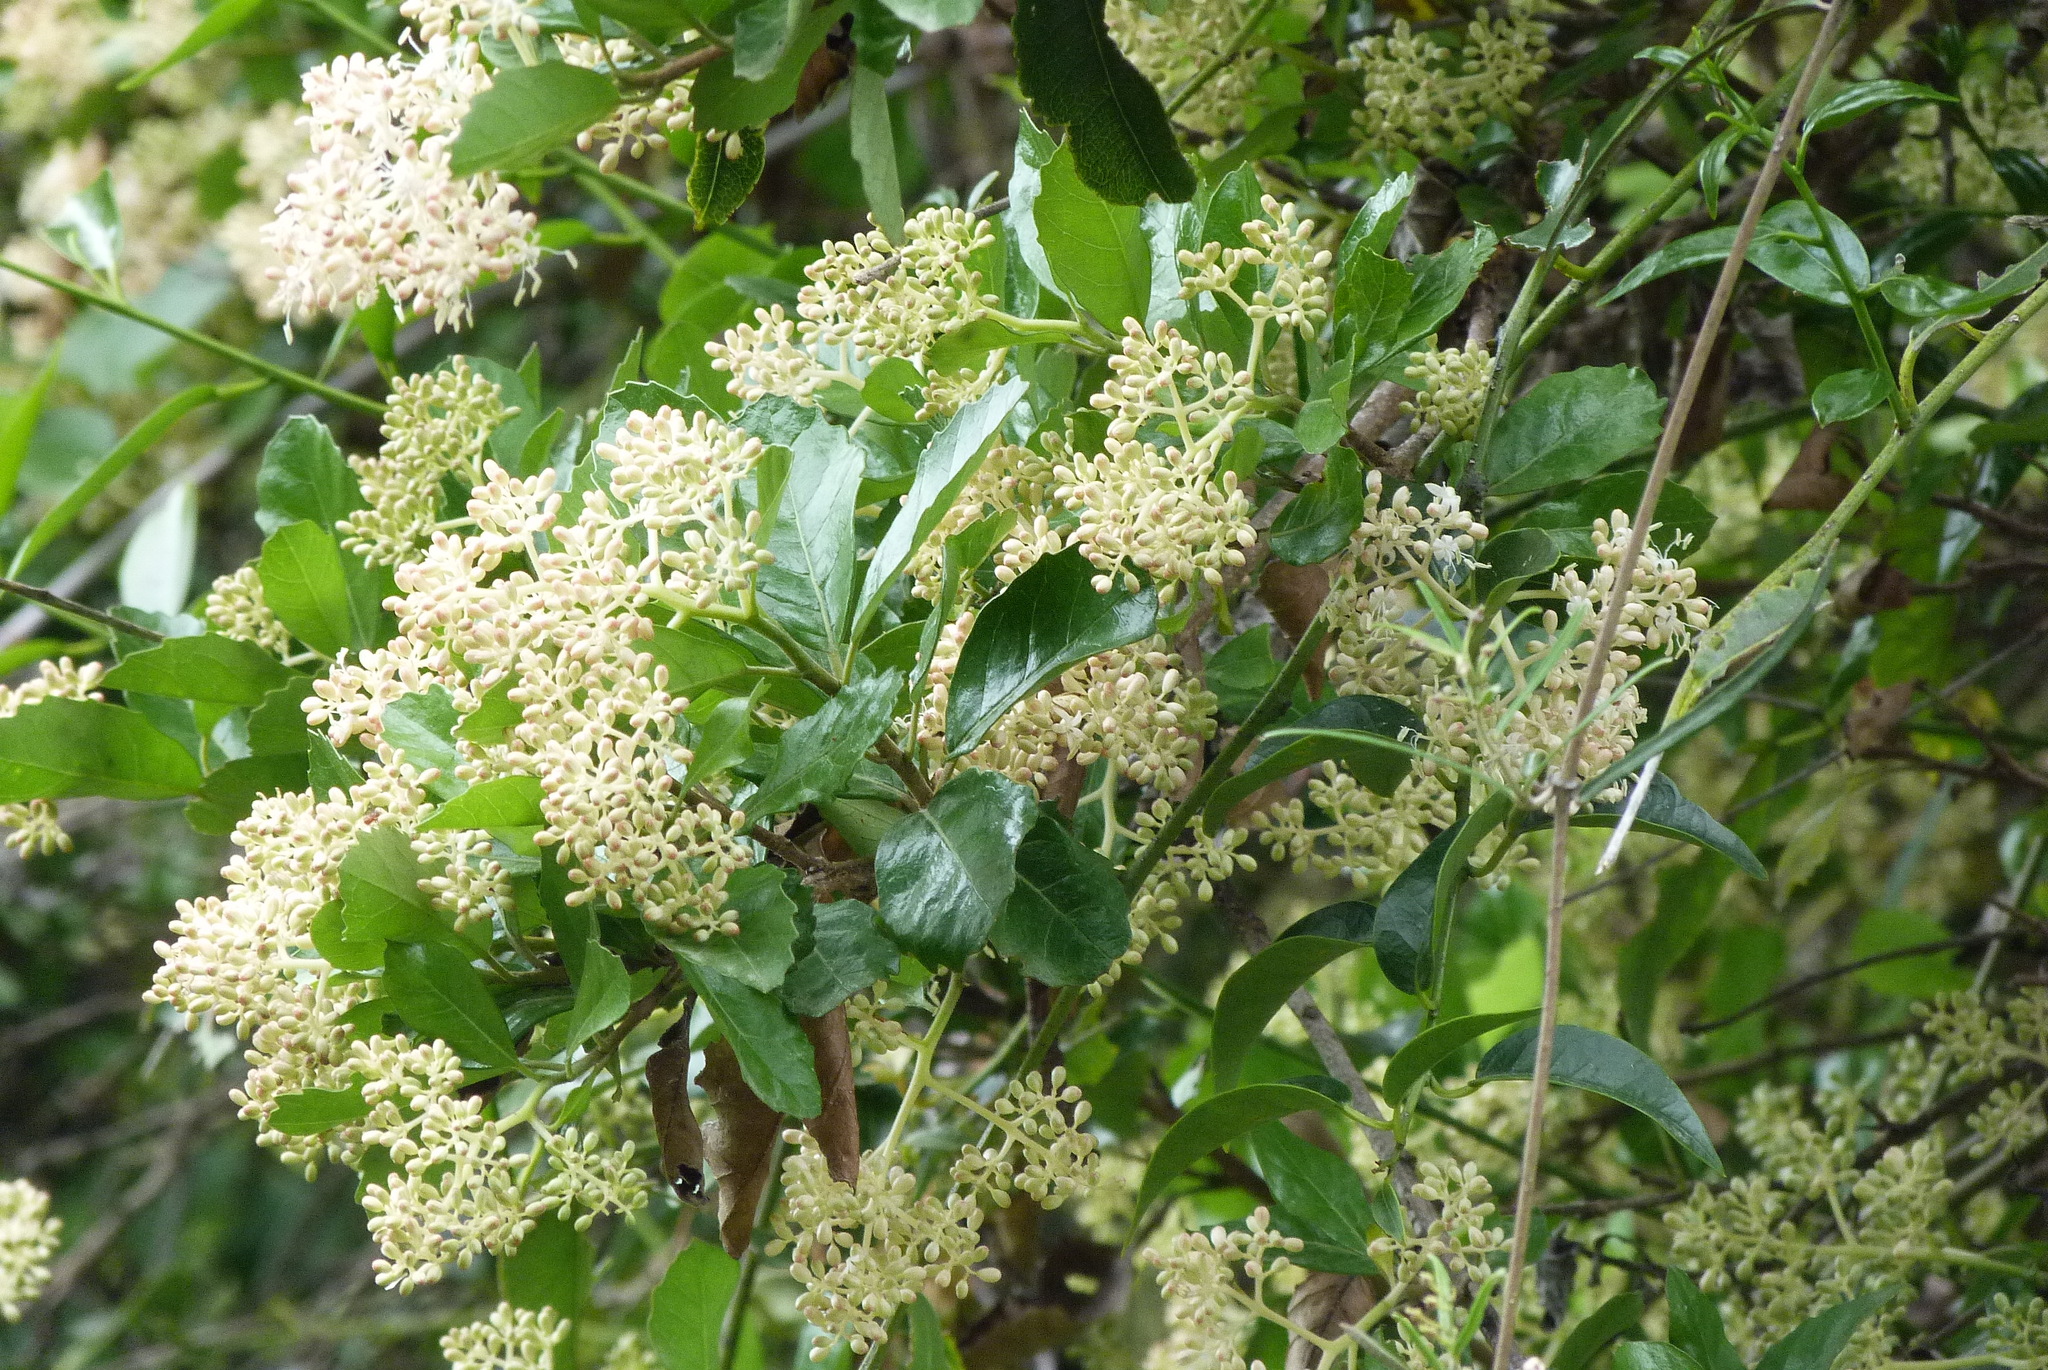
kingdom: Plantae
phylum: Tracheophyta
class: Magnoliopsida
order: Apiales
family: Pennantiaceae
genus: Pennantia
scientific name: Pennantia corymbosa
